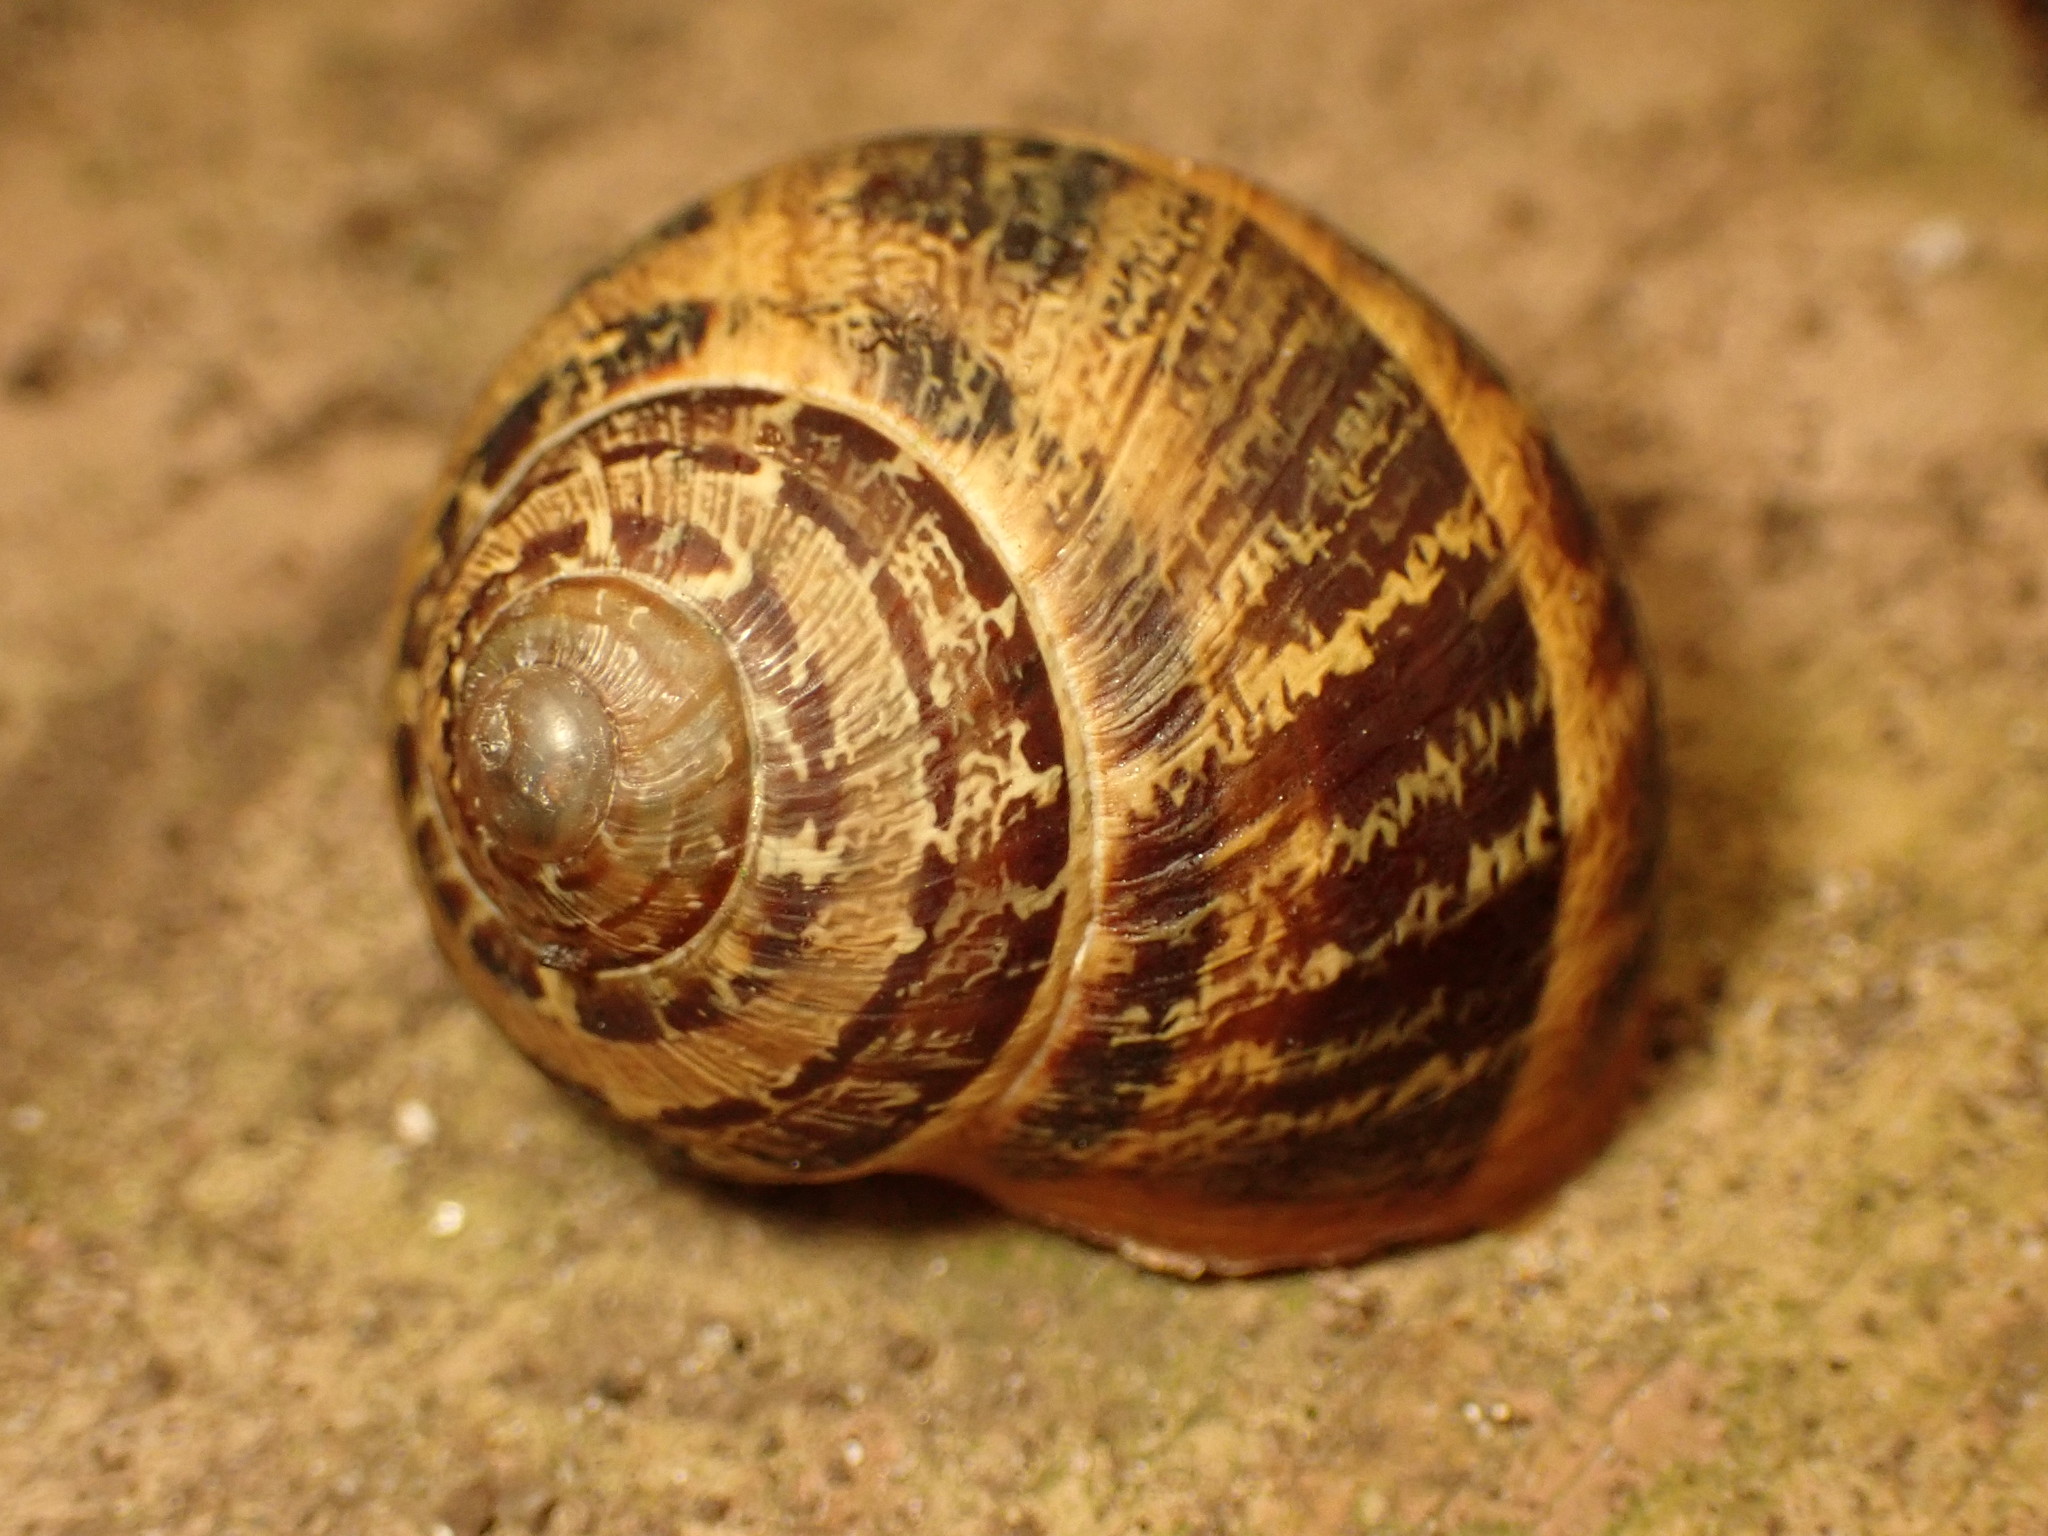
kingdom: Animalia
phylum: Mollusca
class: Gastropoda
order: Stylommatophora
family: Helicidae
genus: Cornu
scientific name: Cornu aspersum
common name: Brown garden snail
